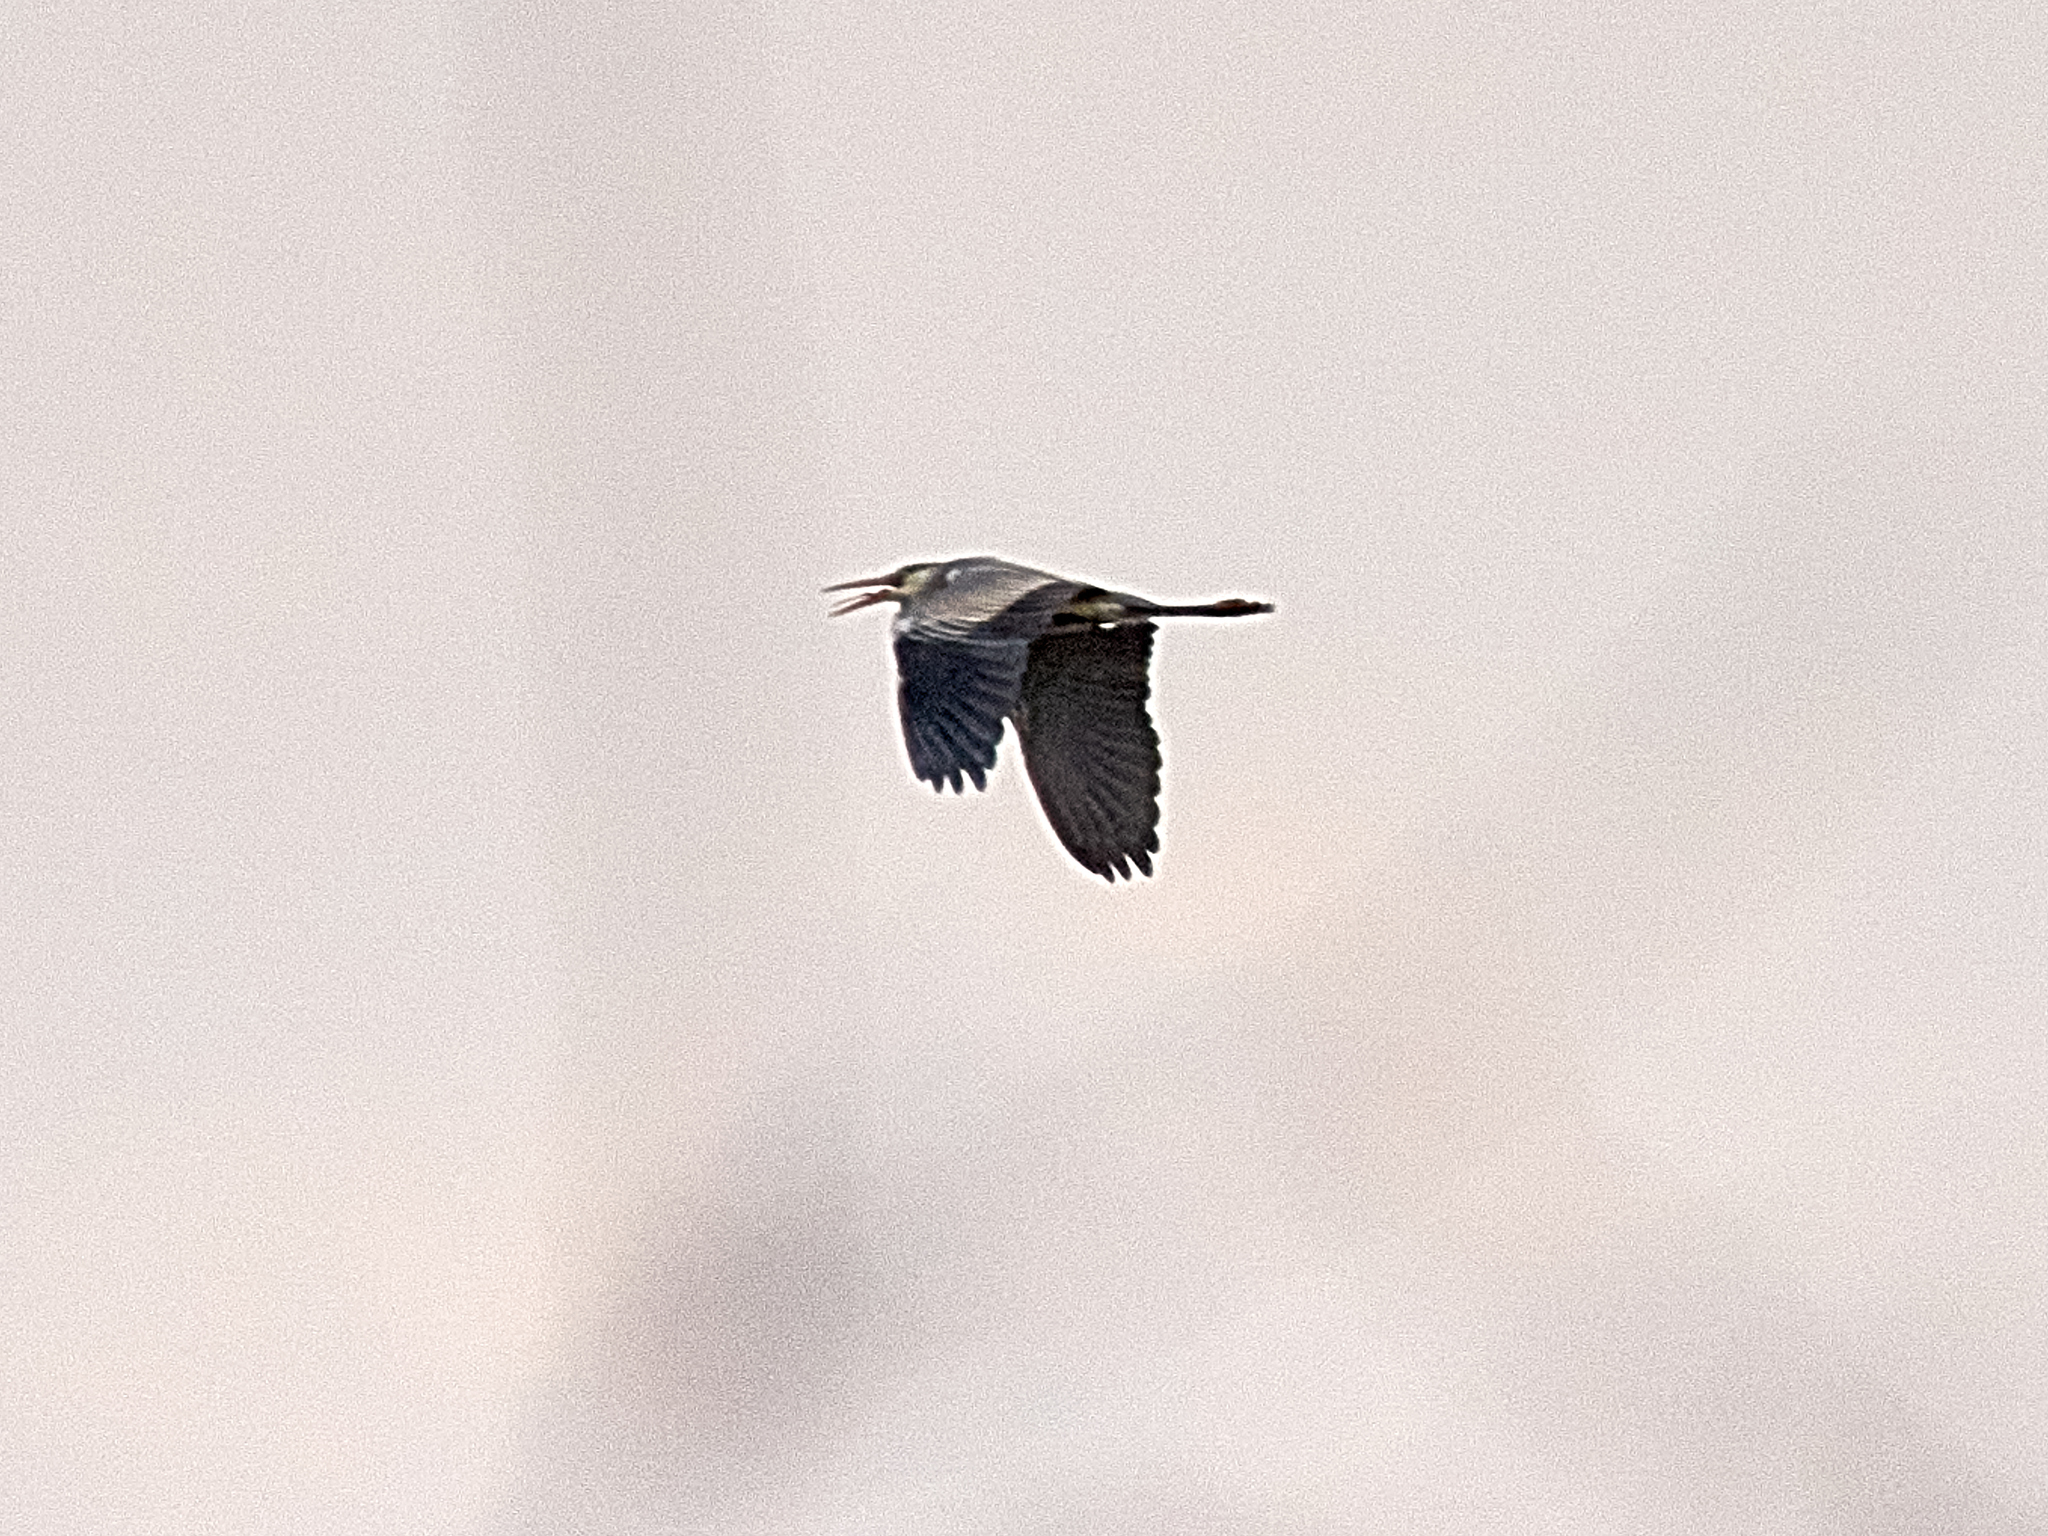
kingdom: Animalia
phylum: Chordata
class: Aves
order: Pelecaniformes
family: Ardeidae
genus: Ardea
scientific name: Ardea cinerea
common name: Grey heron
